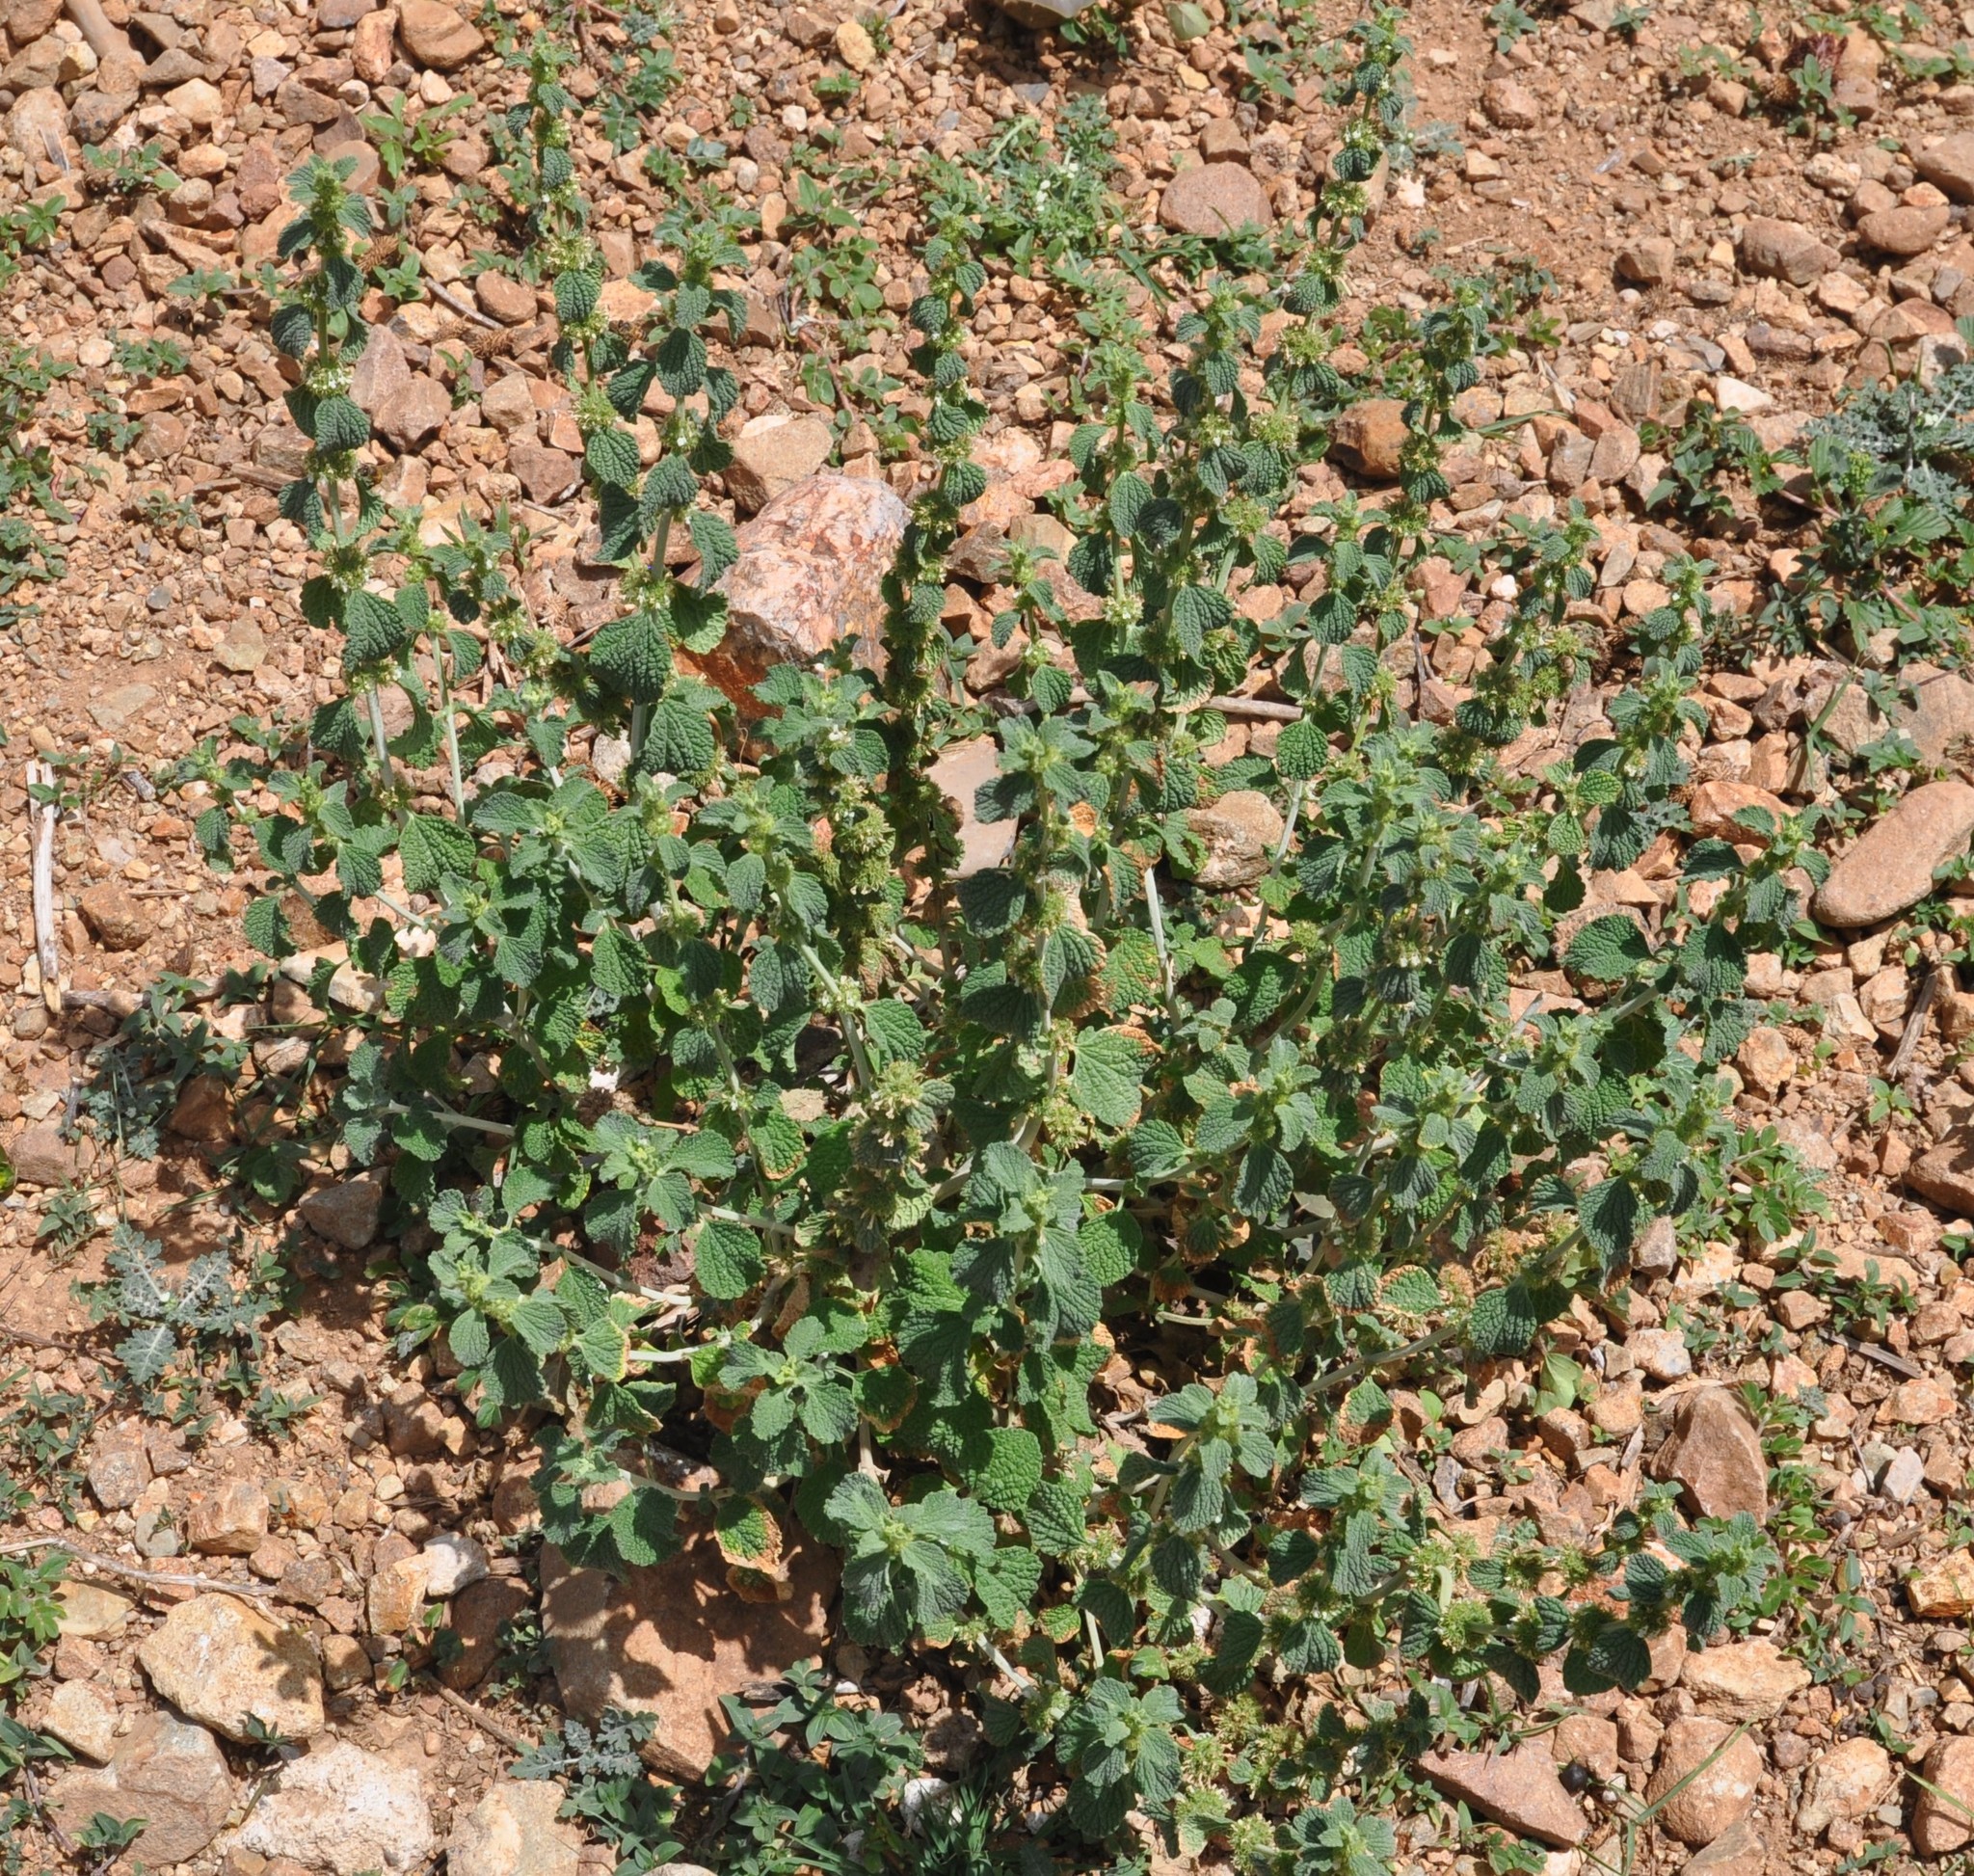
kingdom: Plantae
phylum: Tracheophyta
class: Magnoliopsida
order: Lamiales
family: Lamiaceae
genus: Marrubium
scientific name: Marrubium vulgare
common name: Horehound
